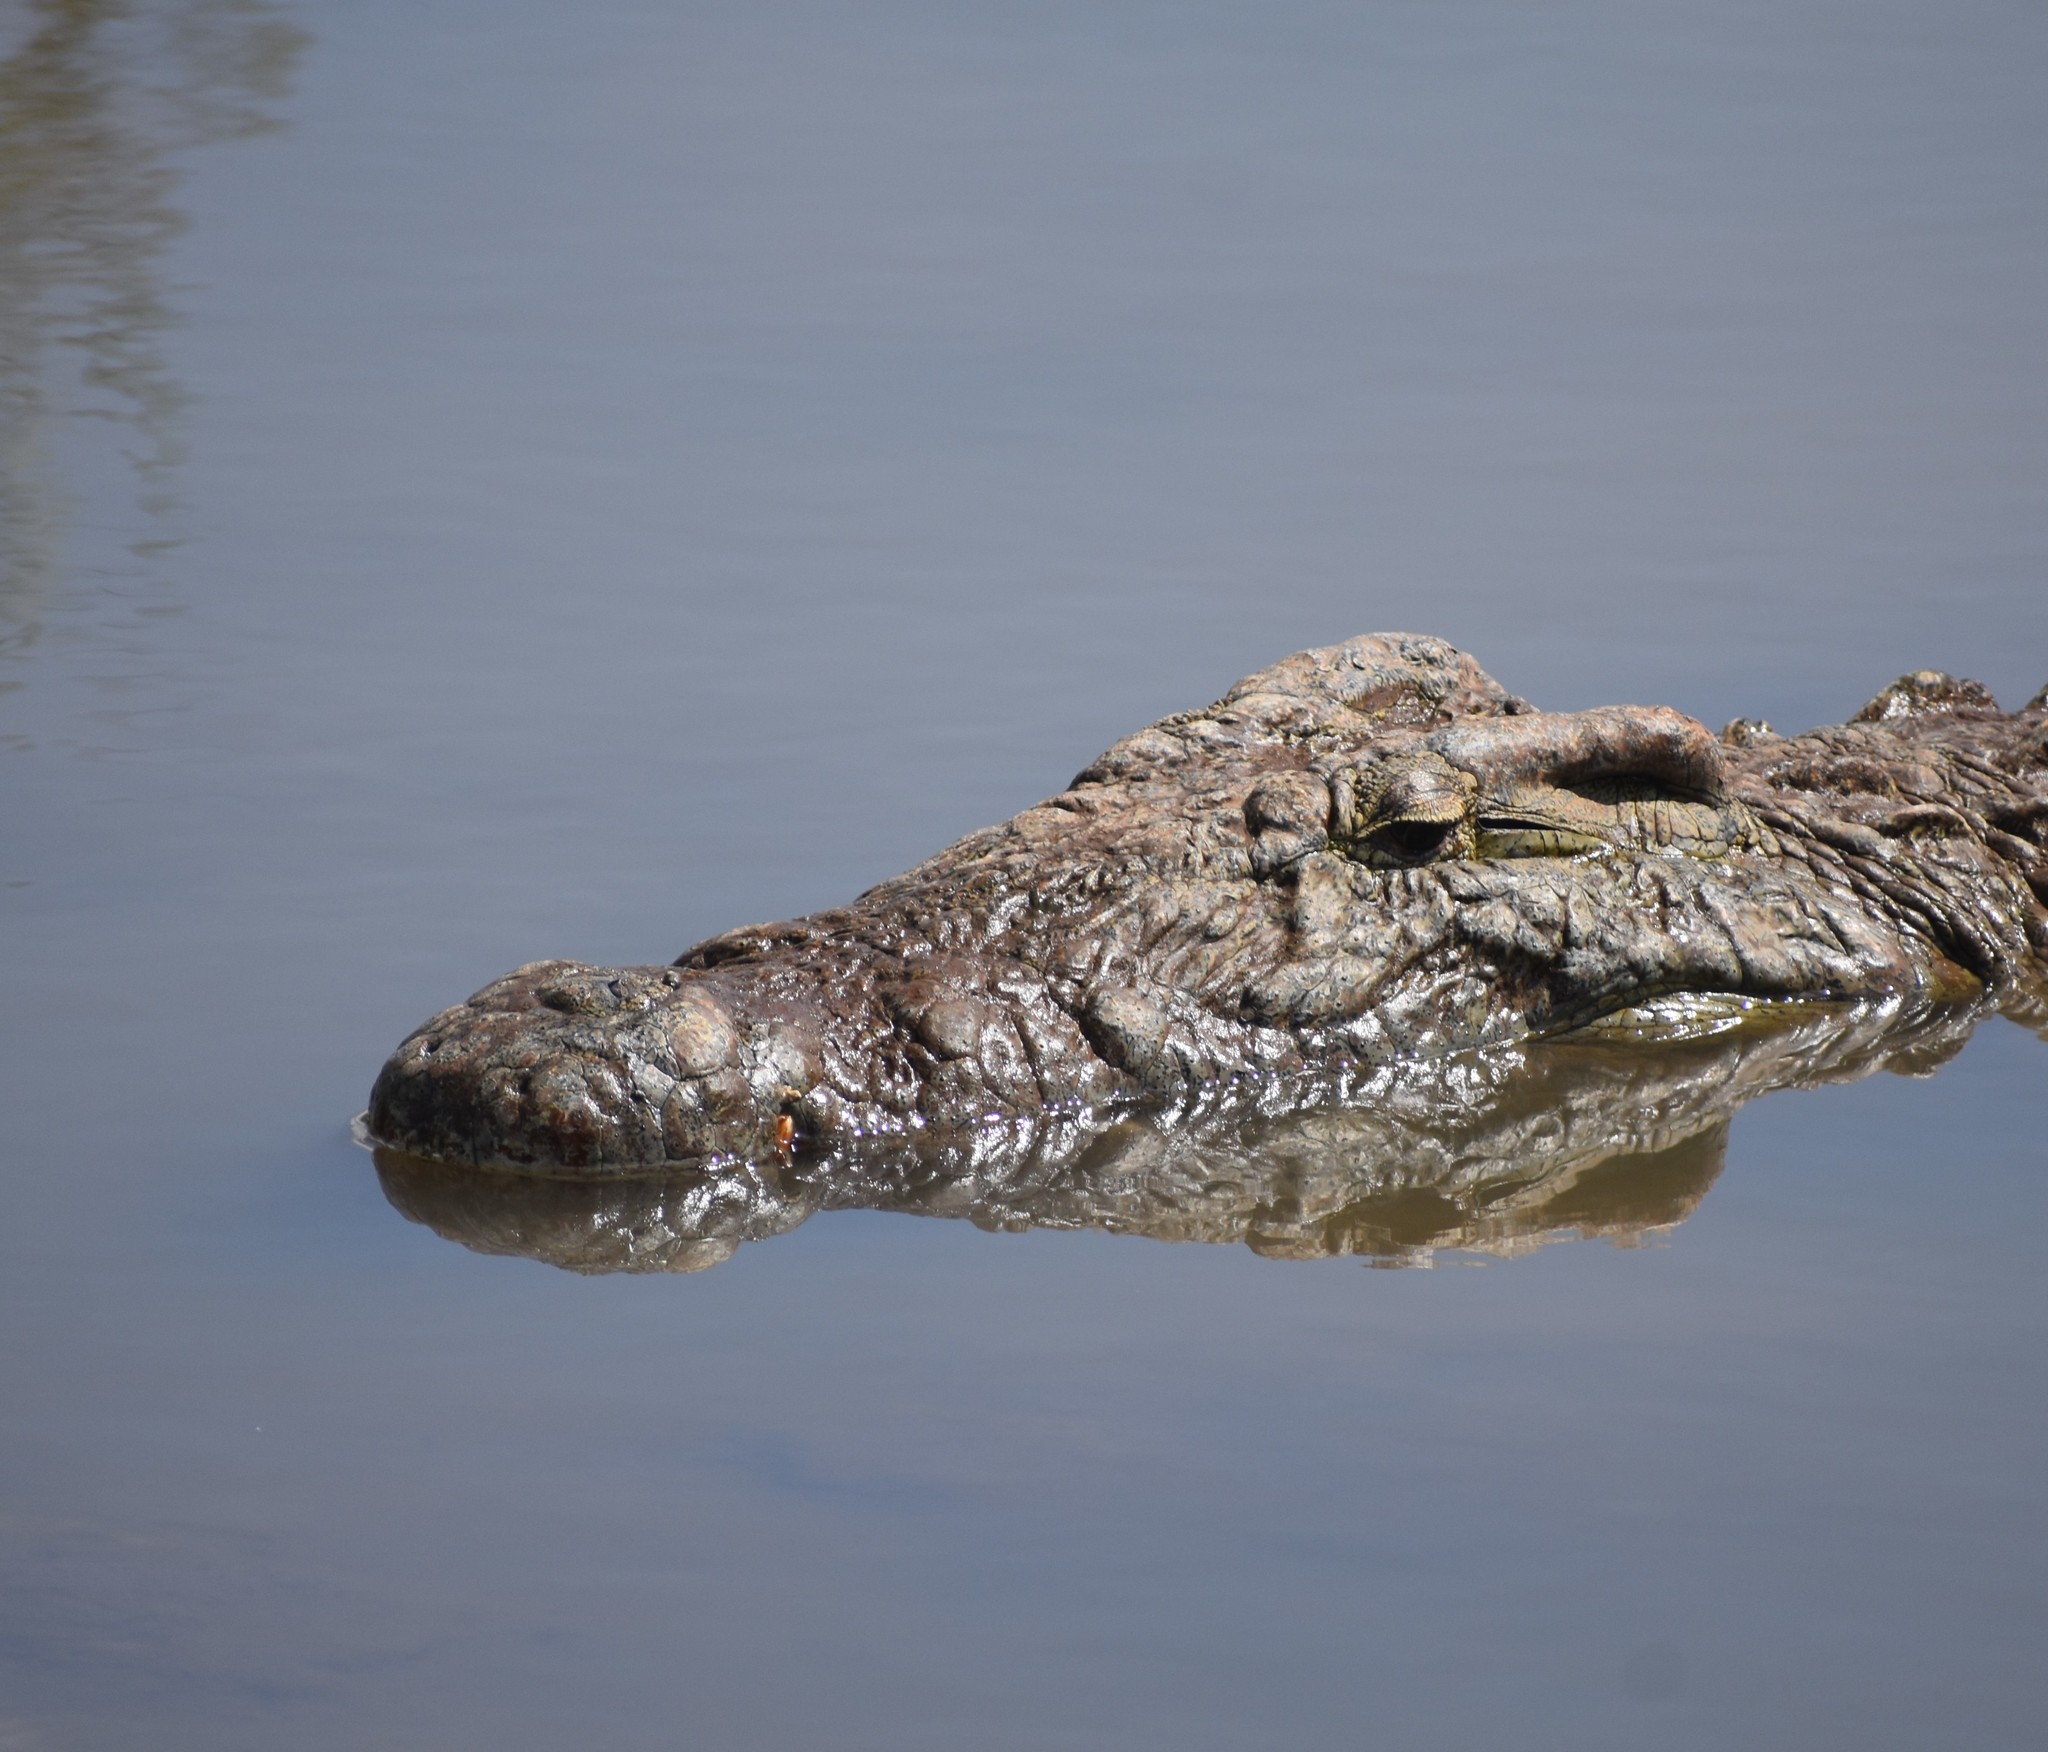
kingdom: Animalia
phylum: Chordata
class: Crocodylia
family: Crocodylidae
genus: Crocodylus
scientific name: Crocodylus niloticus
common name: Nile crocodile
